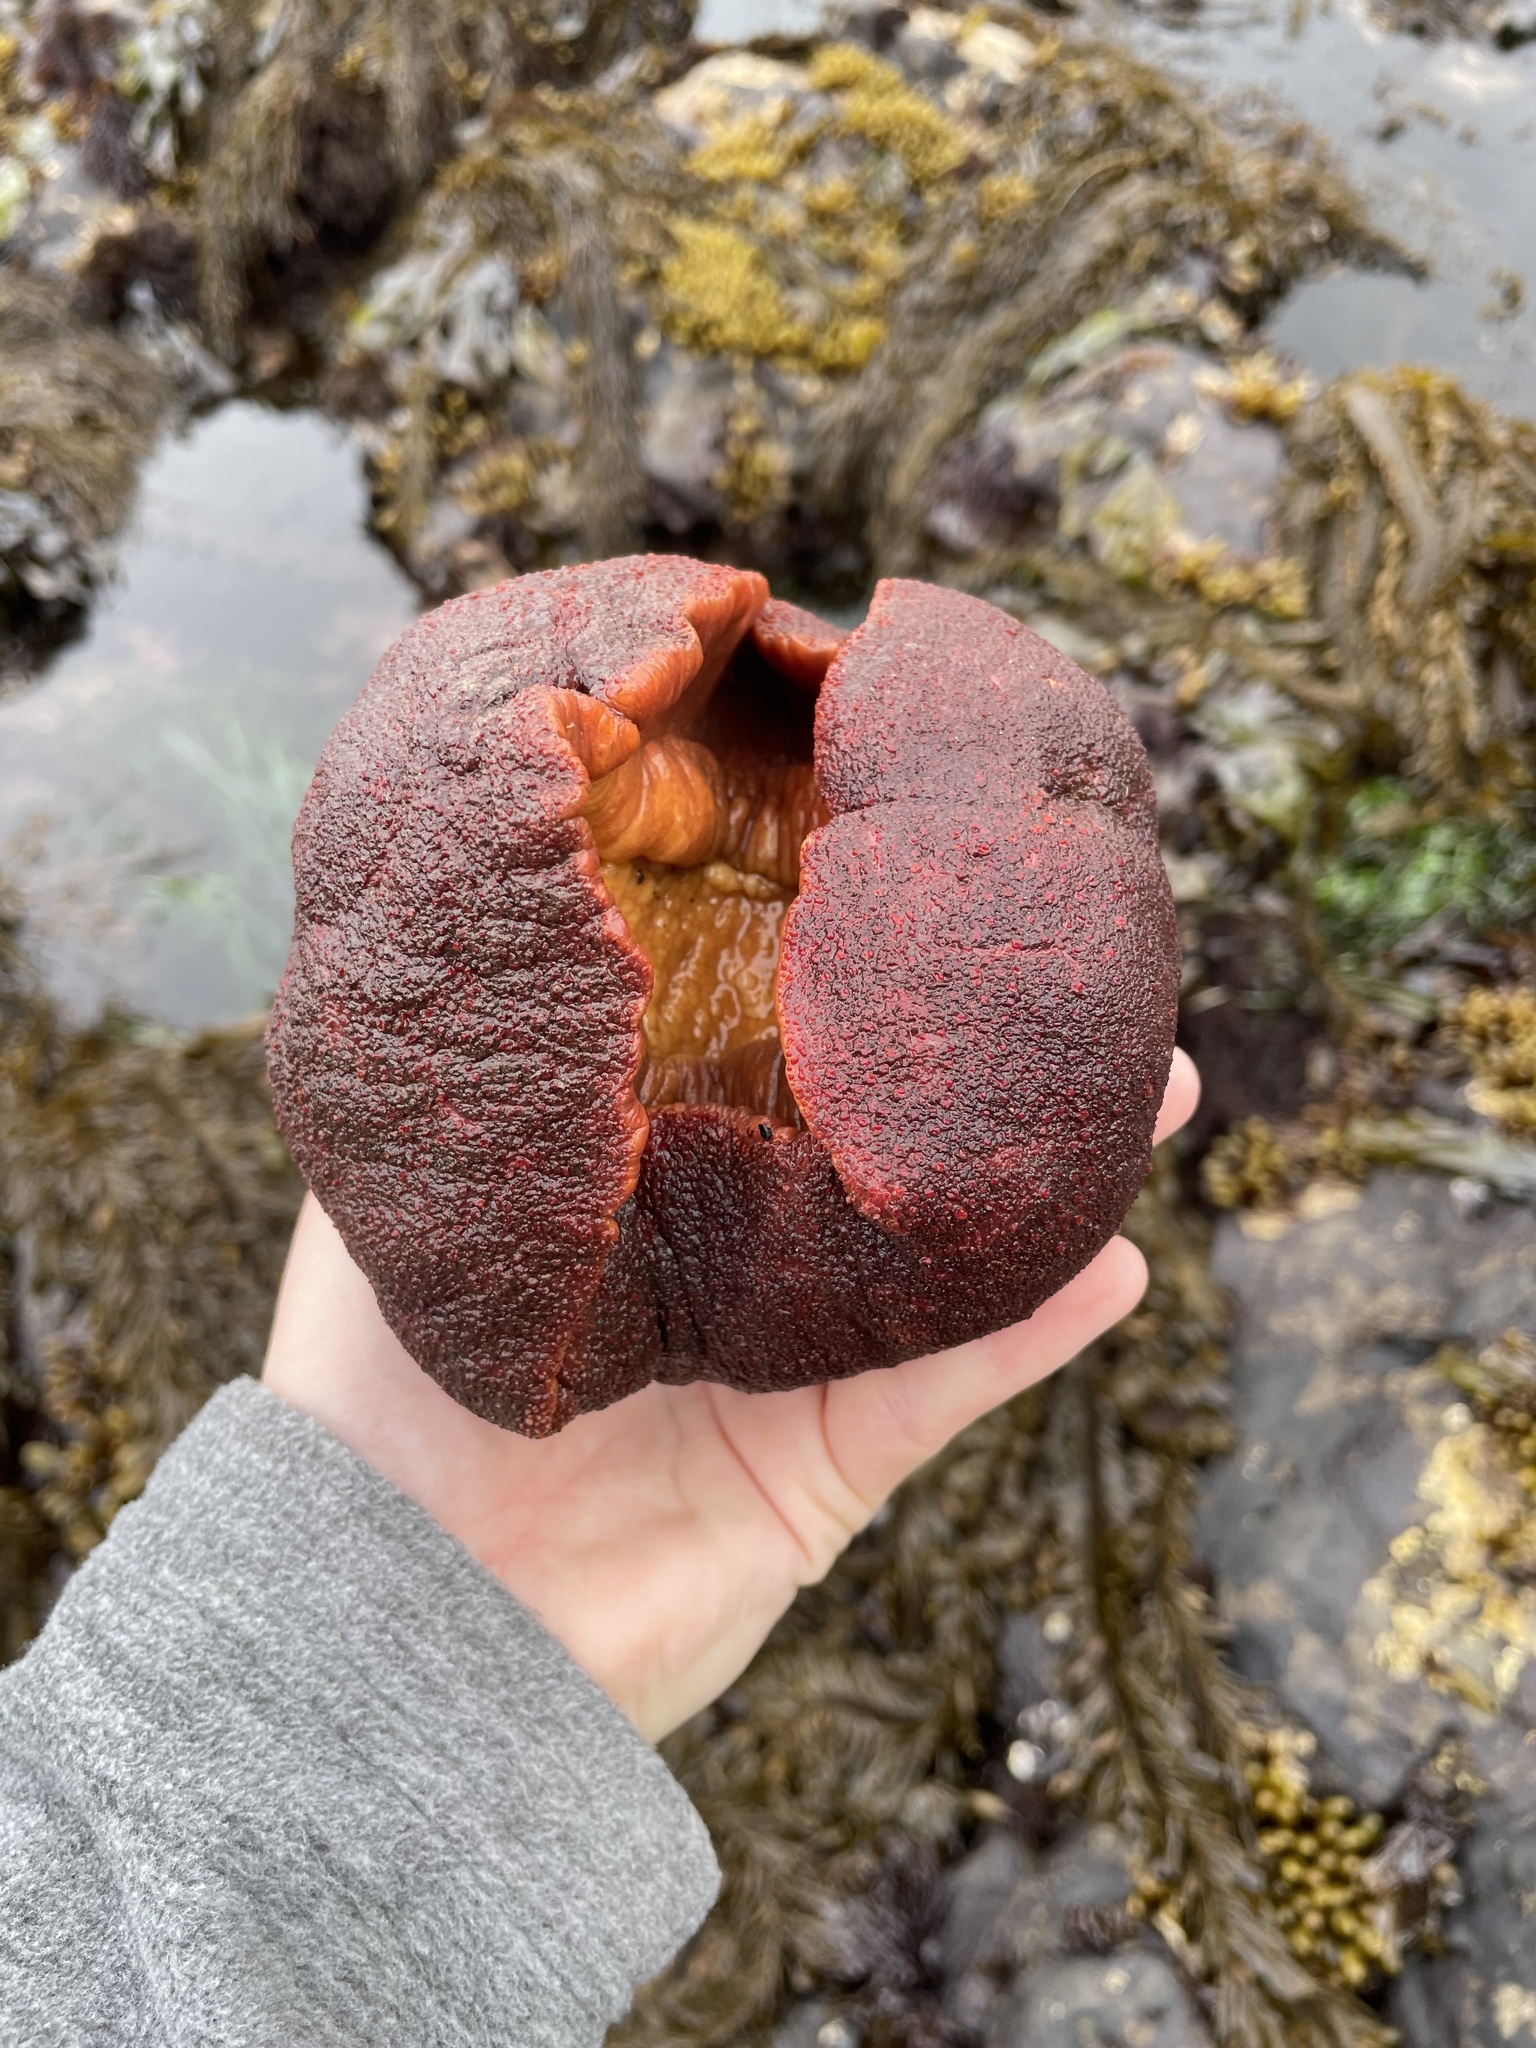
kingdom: Animalia
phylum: Mollusca
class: Polyplacophora
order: Chitonida
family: Acanthochitonidae
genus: Cryptochiton
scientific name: Cryptochiton stelleri
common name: Giant pacific chiton
